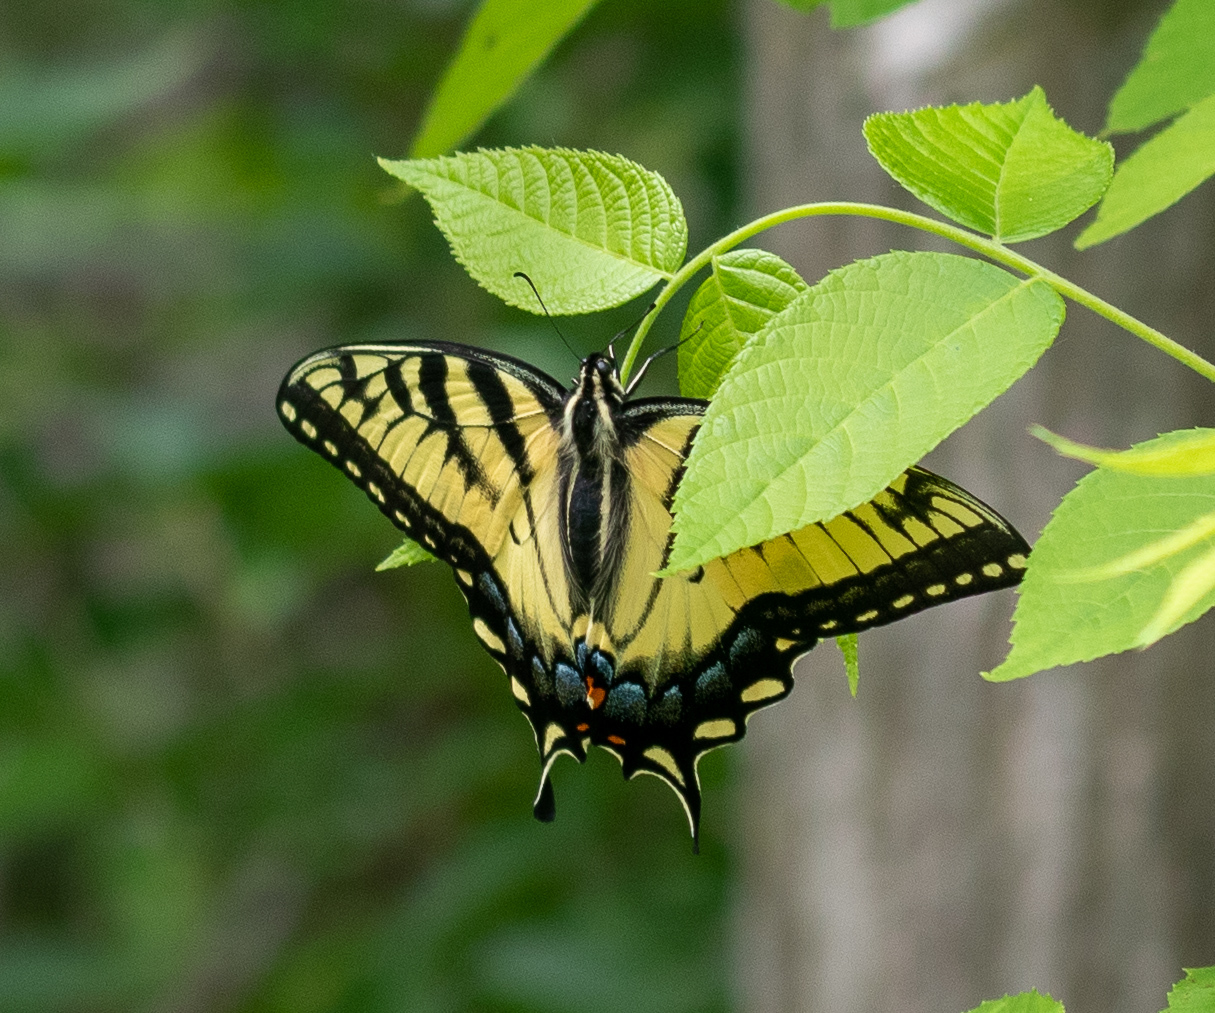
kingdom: Animalia
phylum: Arthropoda
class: Insecta
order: Lepidoptera
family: Papilionidae
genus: Papilio
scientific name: Papilio glaucus
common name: Tiger swallowtail
